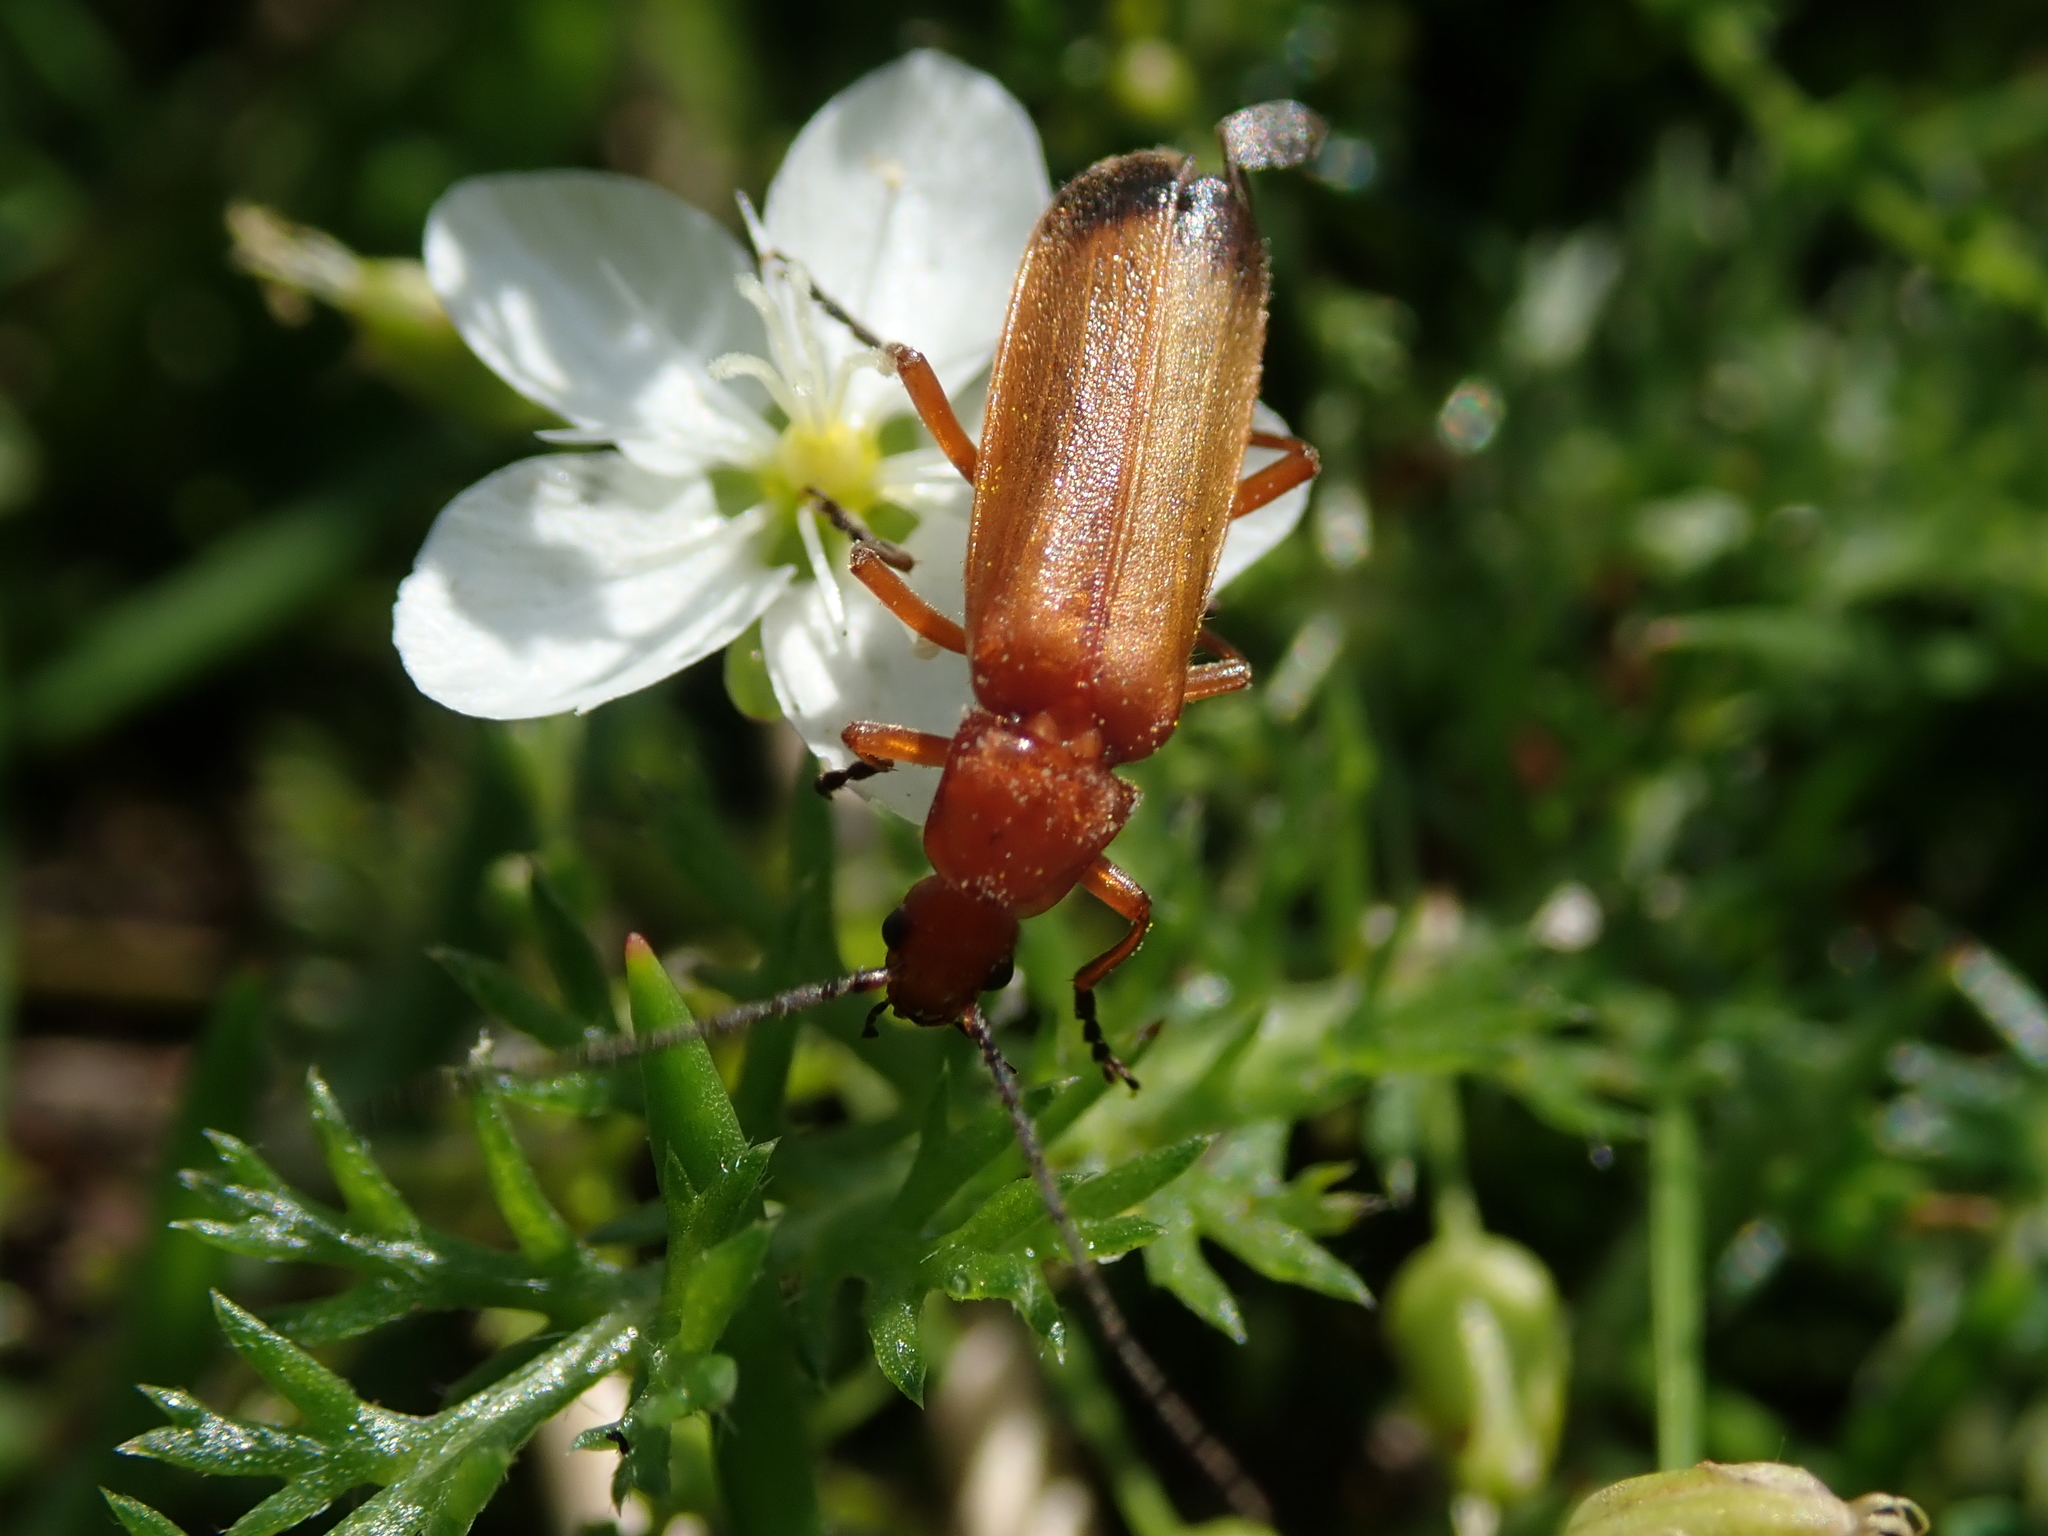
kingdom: Animalia
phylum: Arthropoda
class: Insecta
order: Coleoptera
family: Cantharidae
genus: Rhagonycha
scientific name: Rhagonycha fulva
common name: Common red soldier beetle
